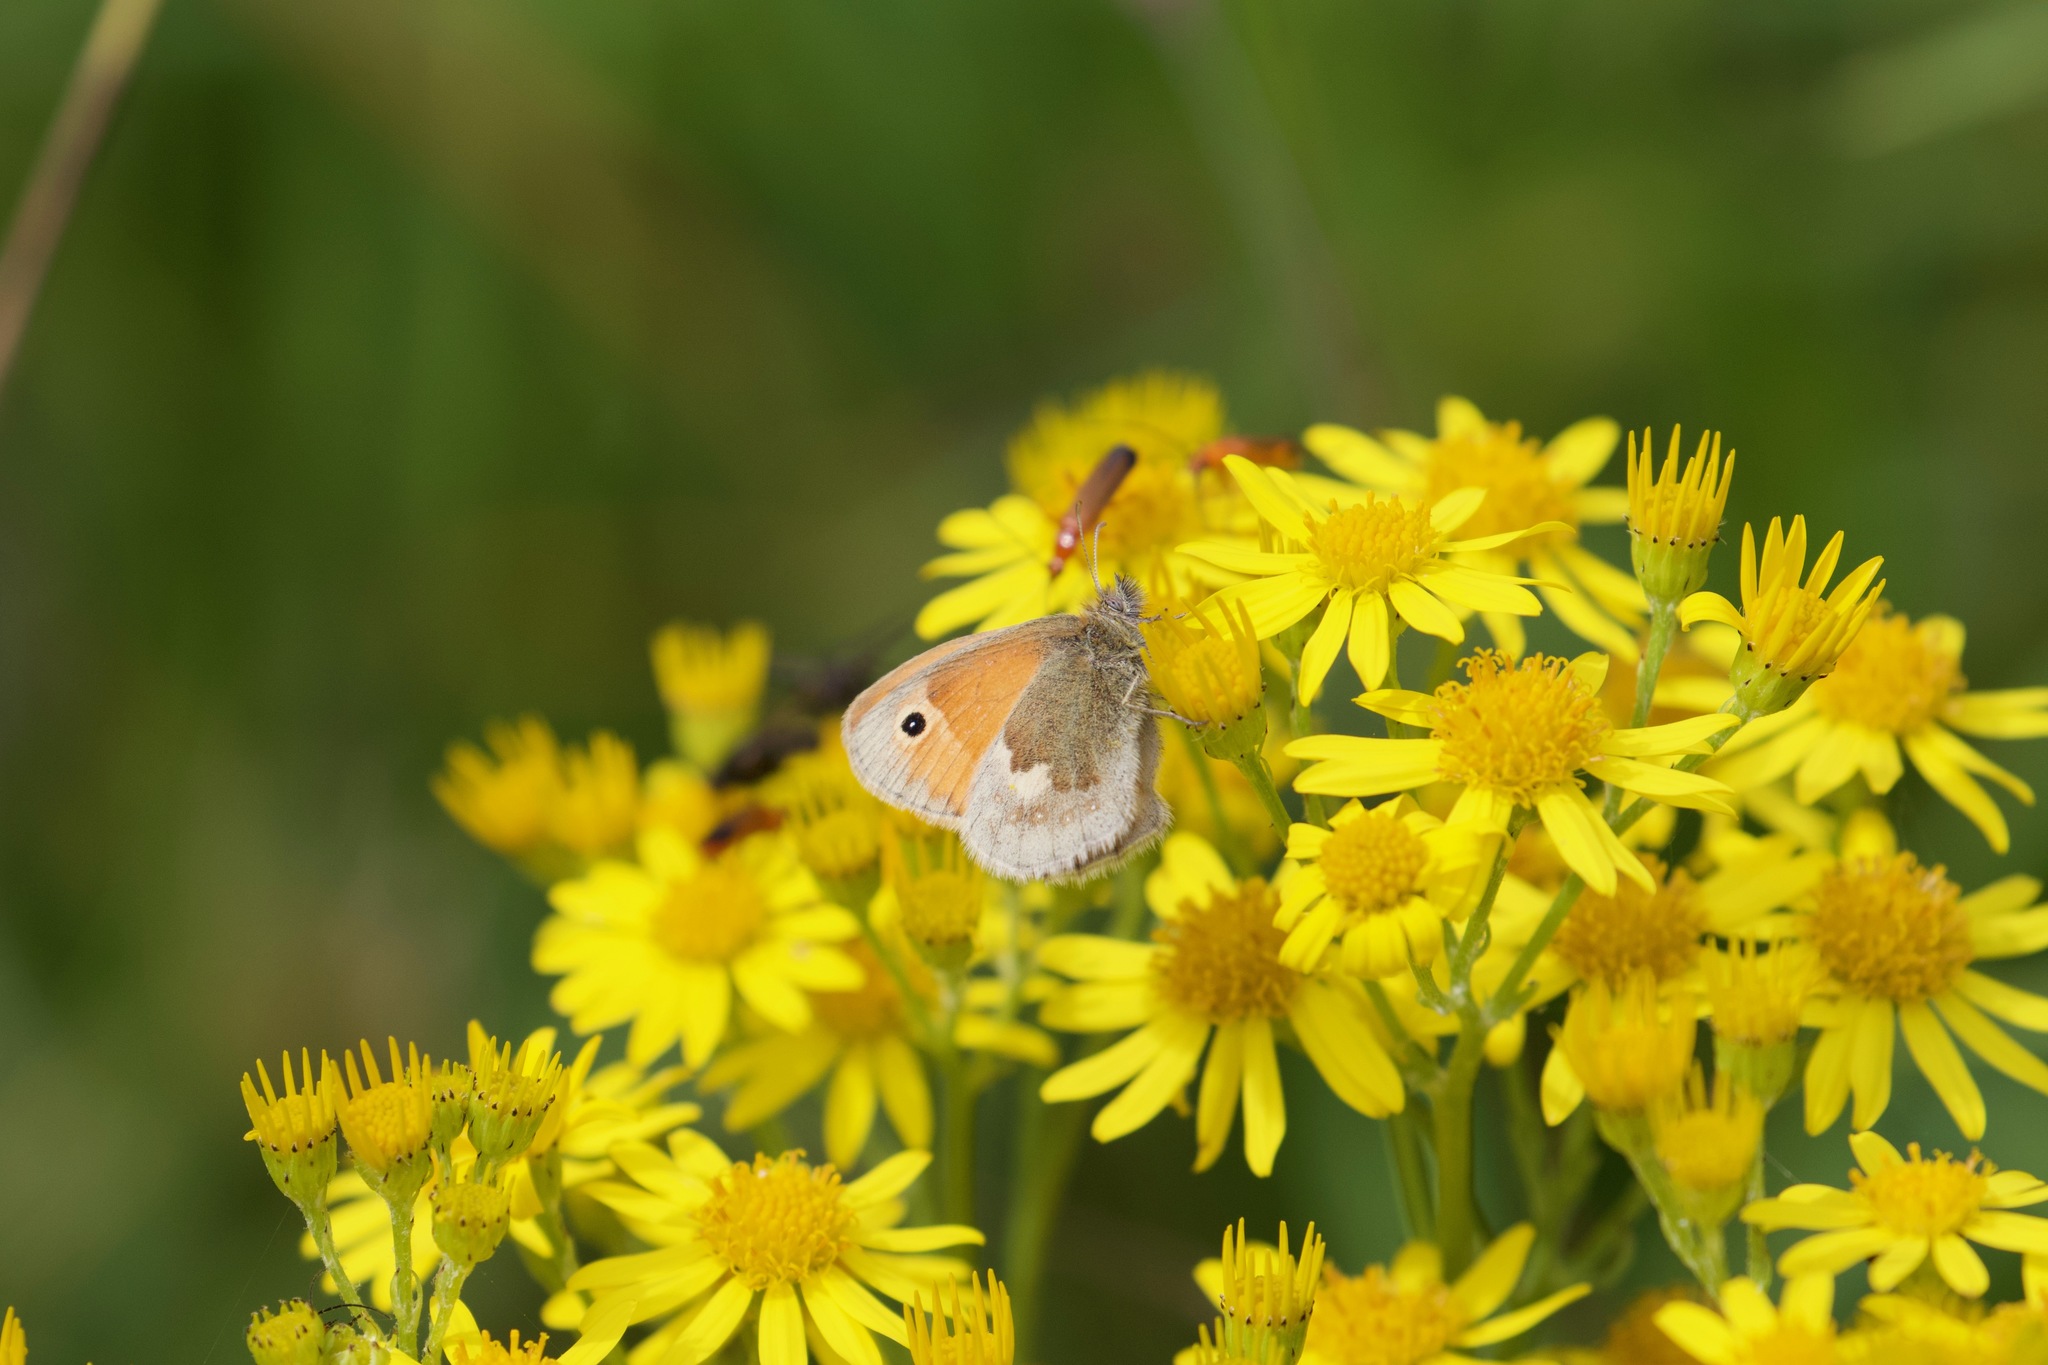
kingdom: Animalia
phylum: Arthropoda
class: Insecta
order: Lepidoptera
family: Nymphalidae
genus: Coenonympha
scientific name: Coenonympha pamphilus
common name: Small heath
